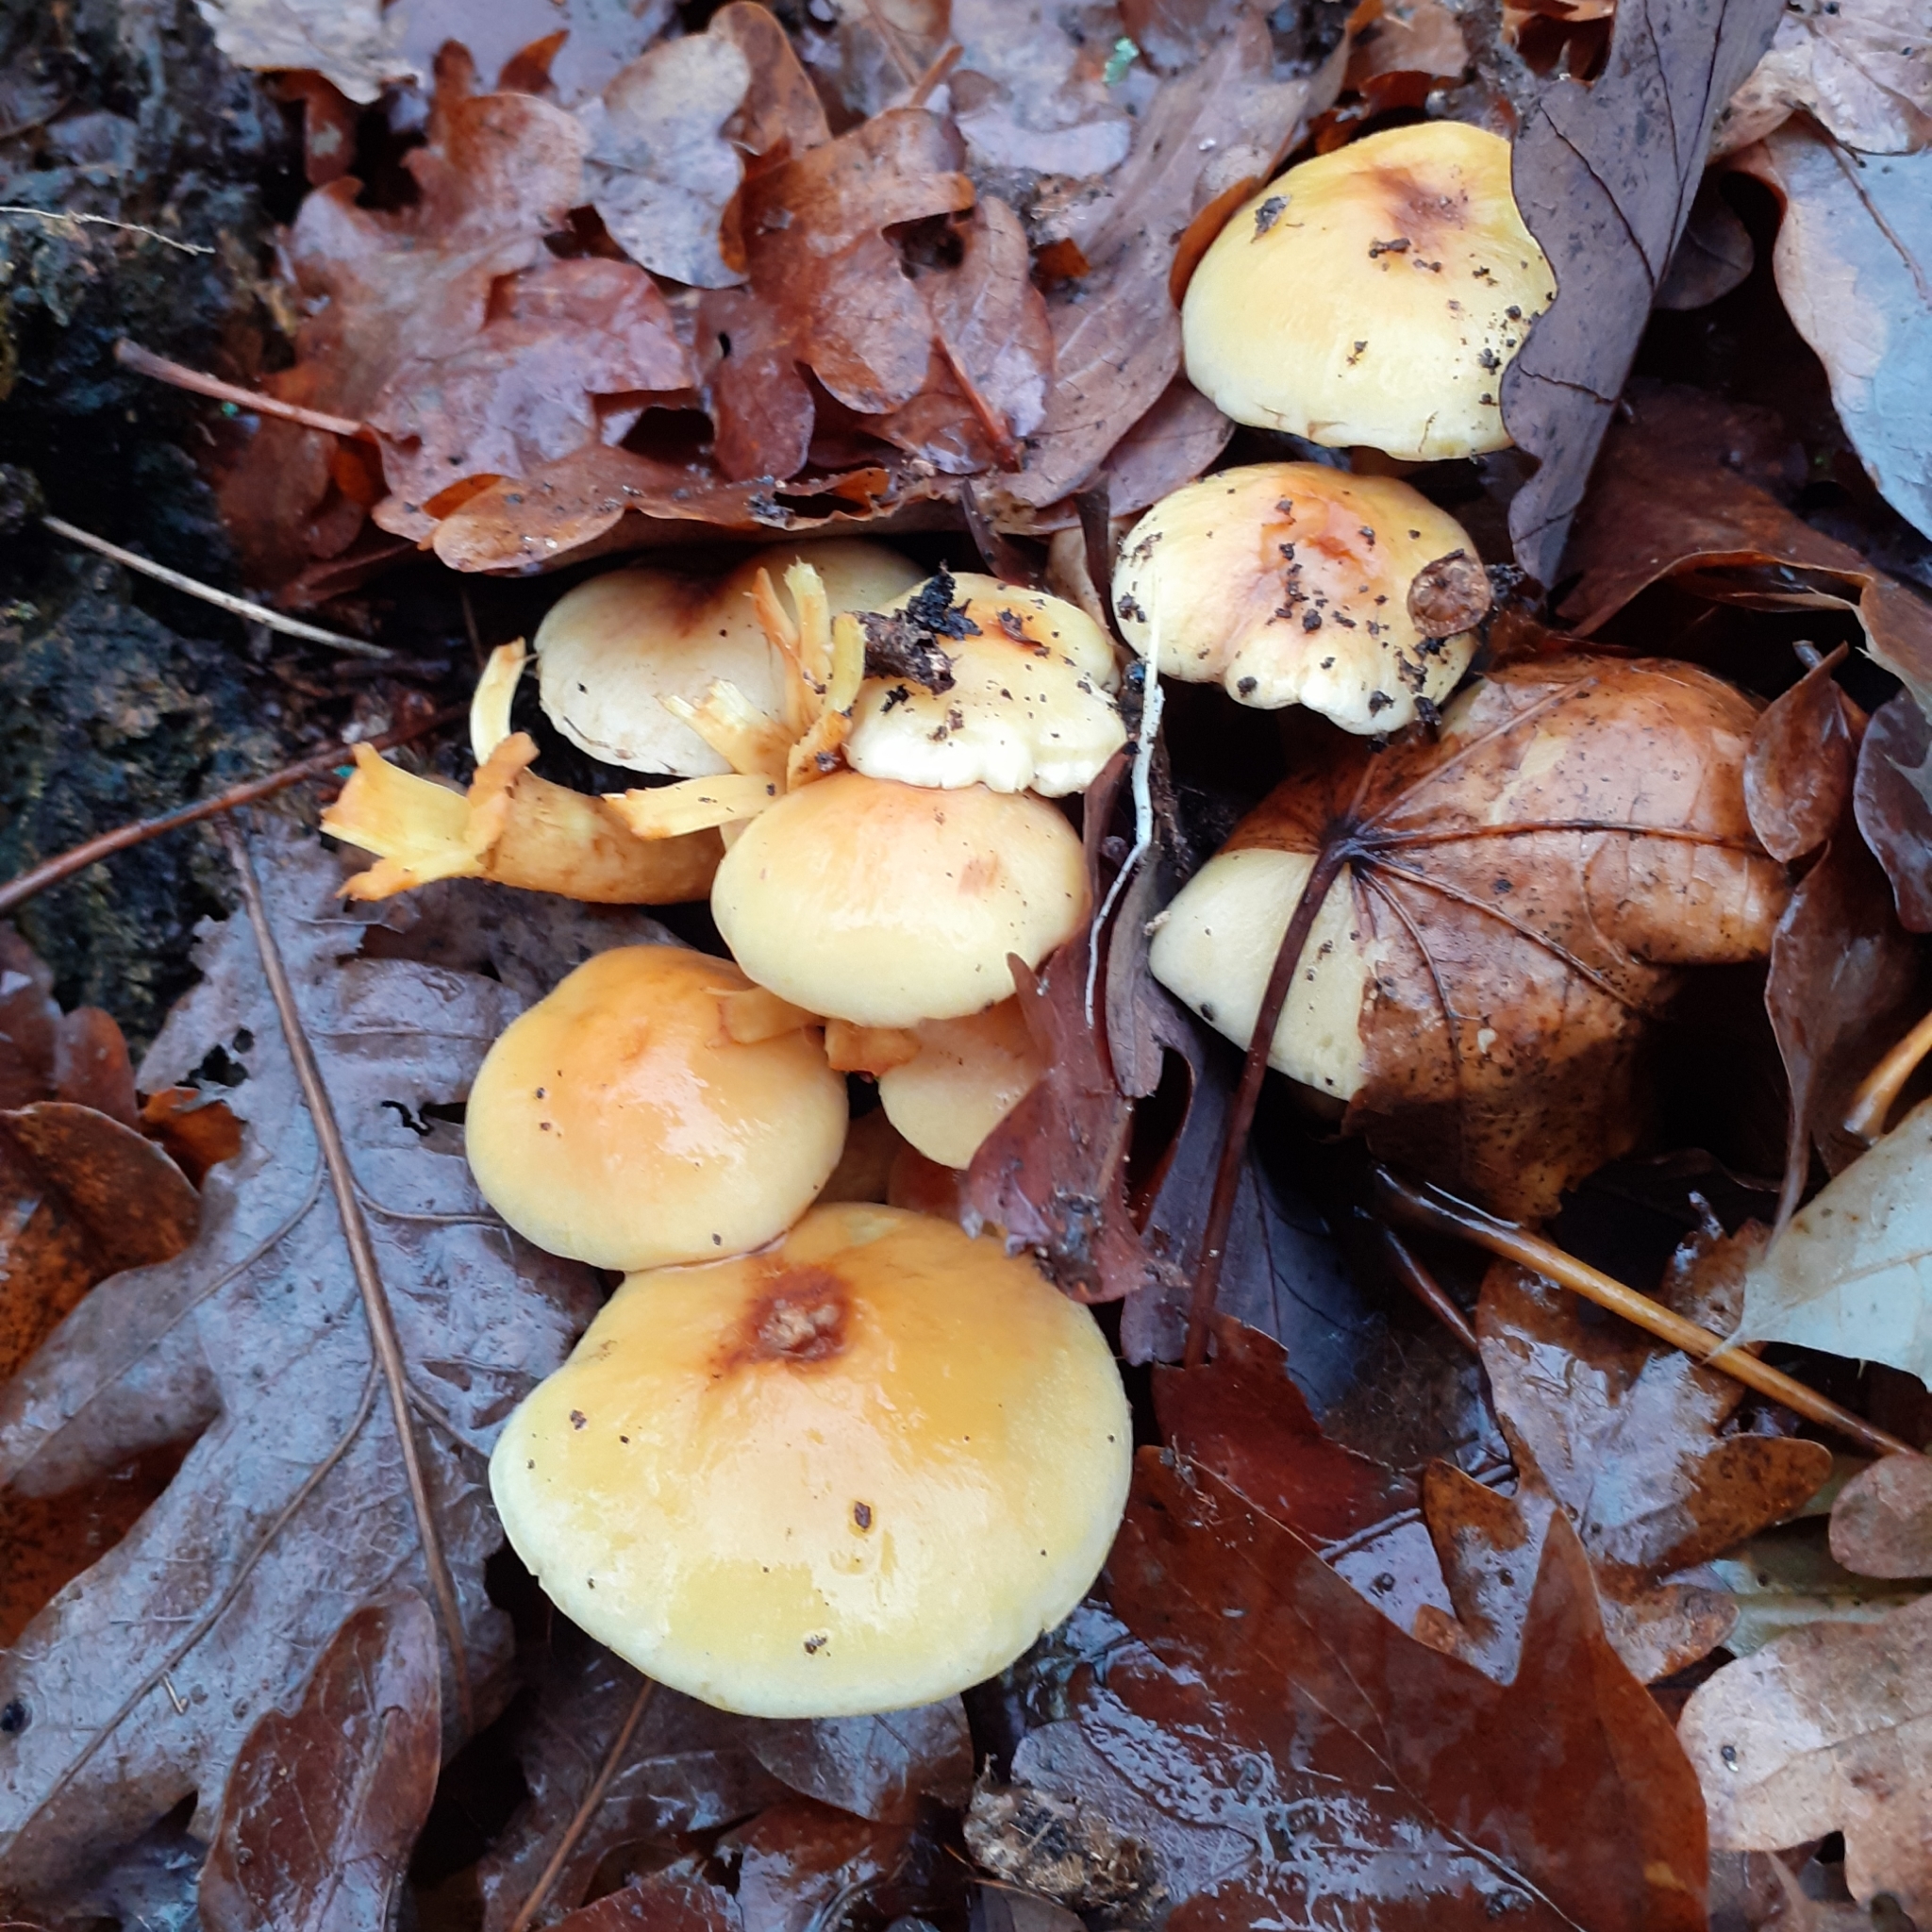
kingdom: Fungi
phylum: Basidiomycota
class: Agaricomycetes
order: Agaricales
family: Strophariaceae
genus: Hypholoma
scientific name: Hypholoma fasciculare
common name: Sulphur tuft
